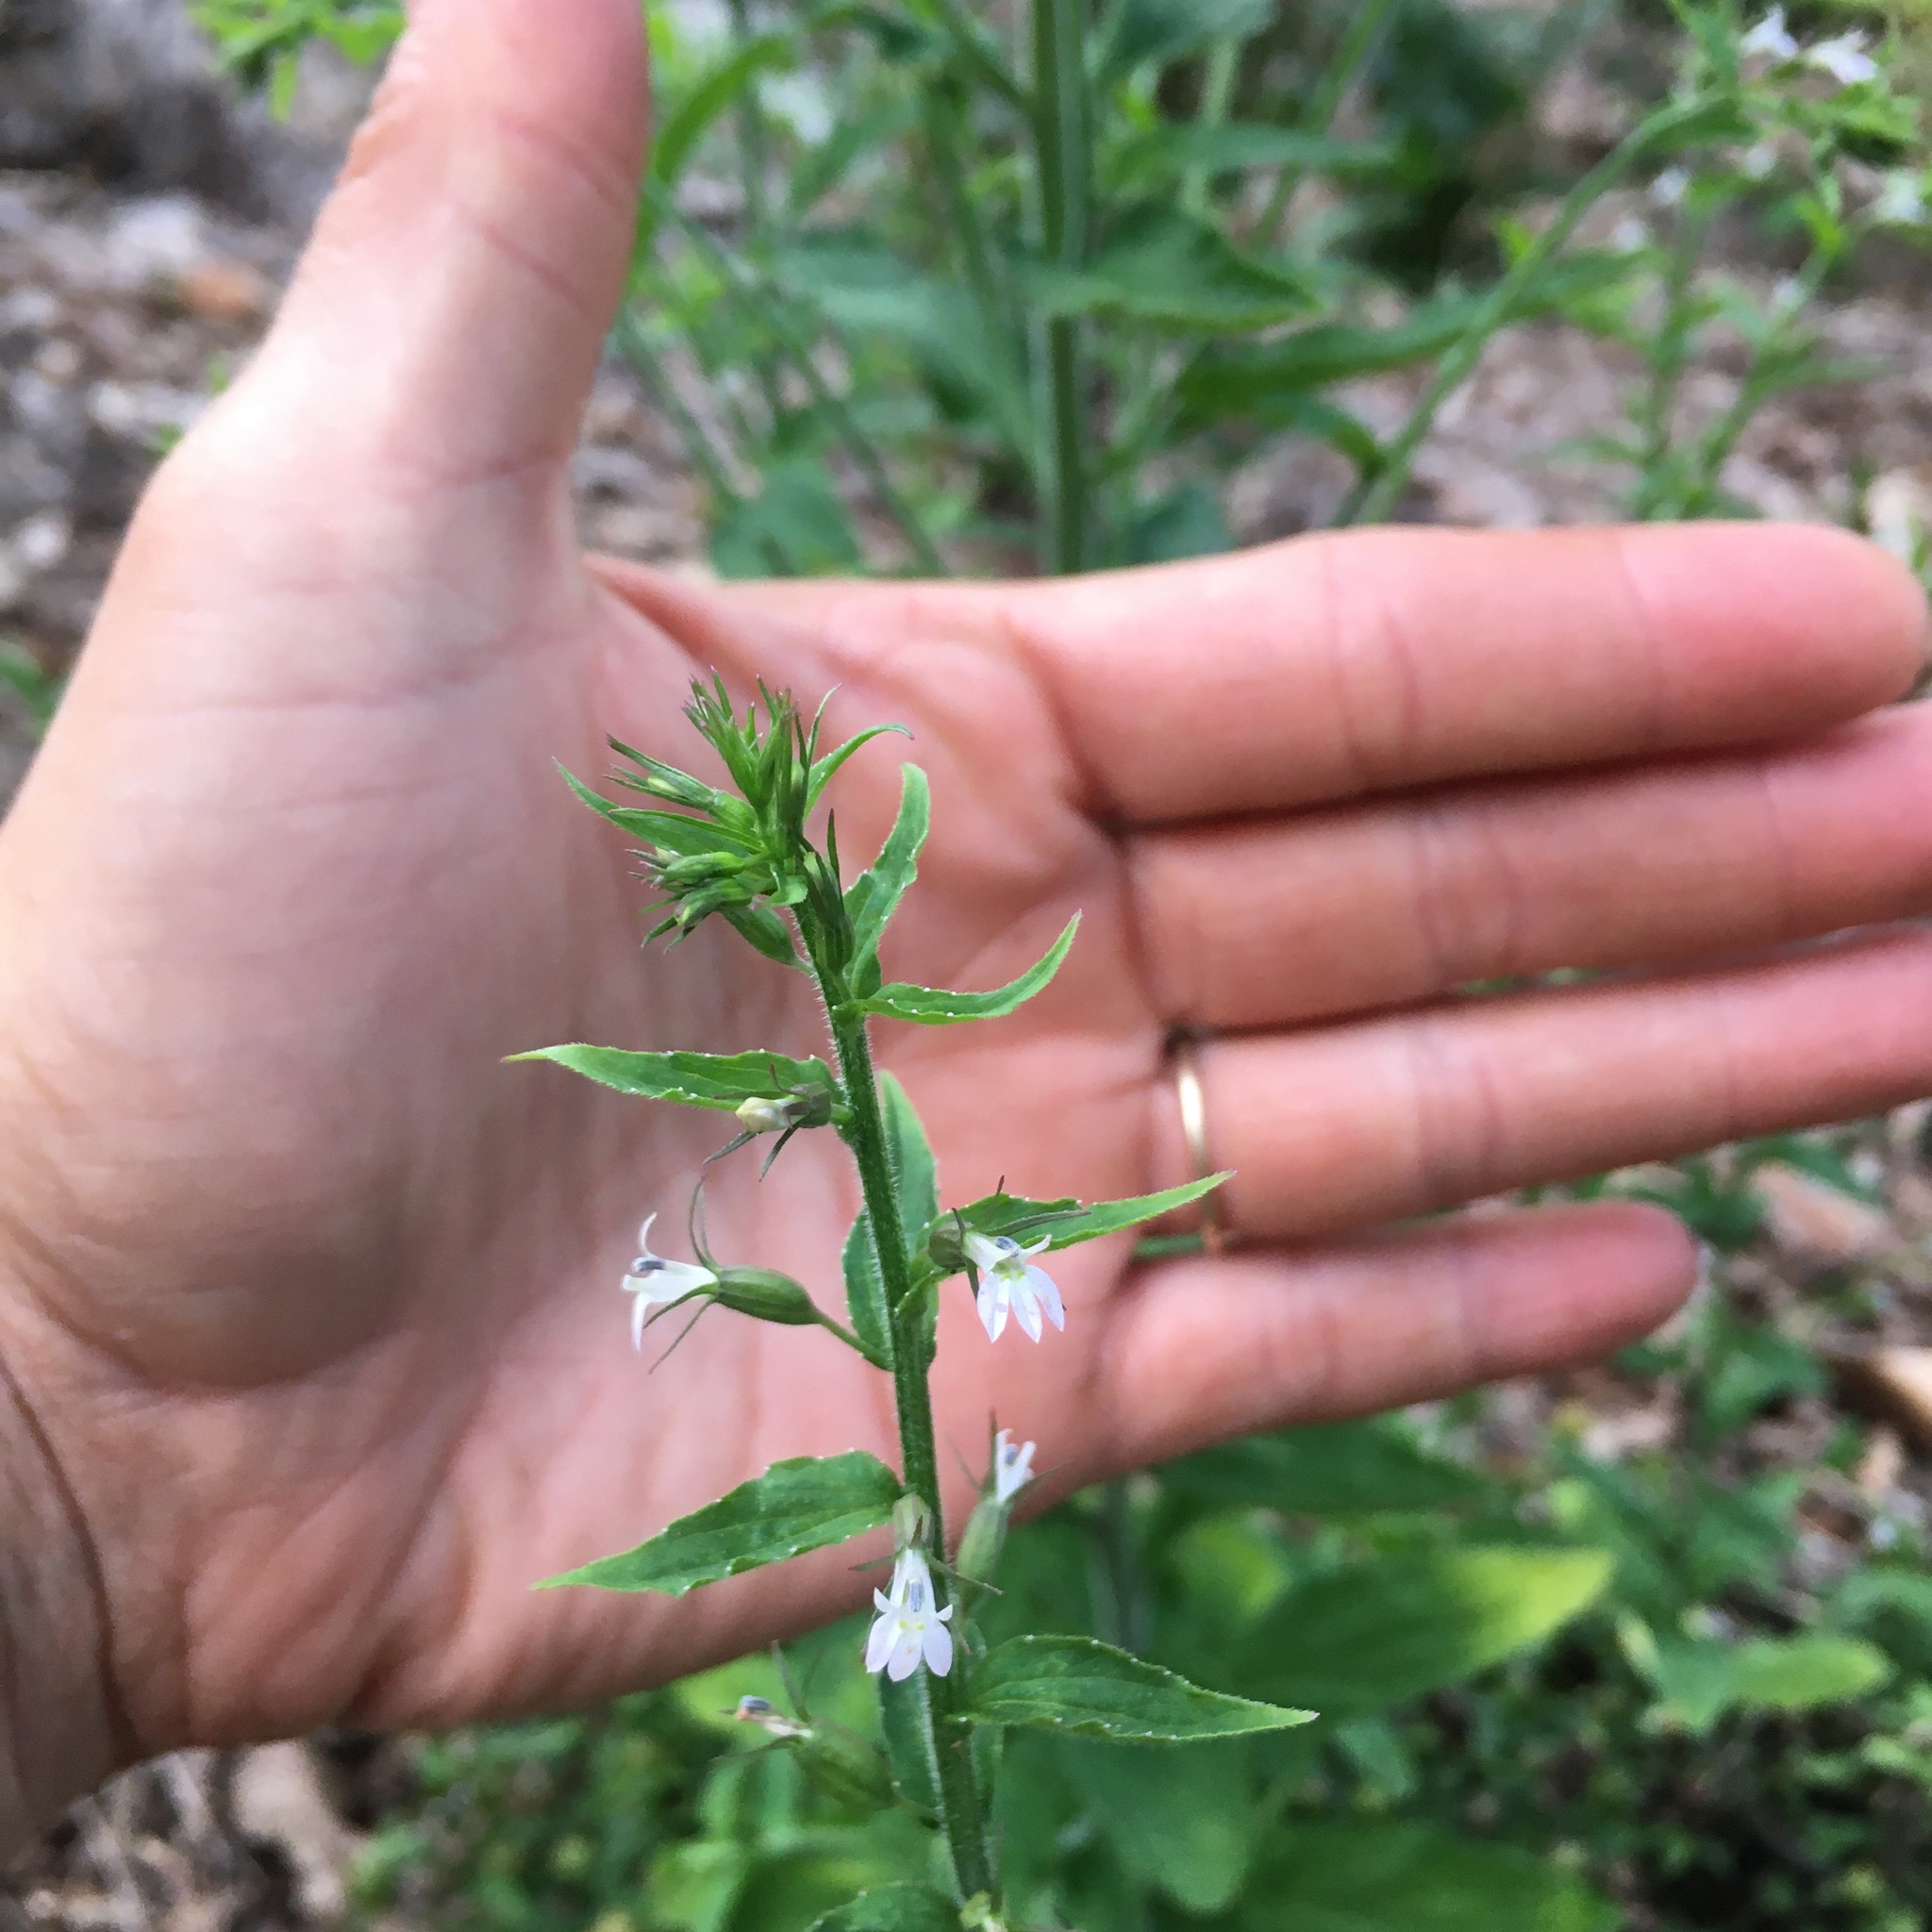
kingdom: Plantae
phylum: Tracheophyta
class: Magnoliopsida
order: Asterales
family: Campanulaceae
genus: Lobelia
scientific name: Lobelia inflata
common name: Indian tobacco
